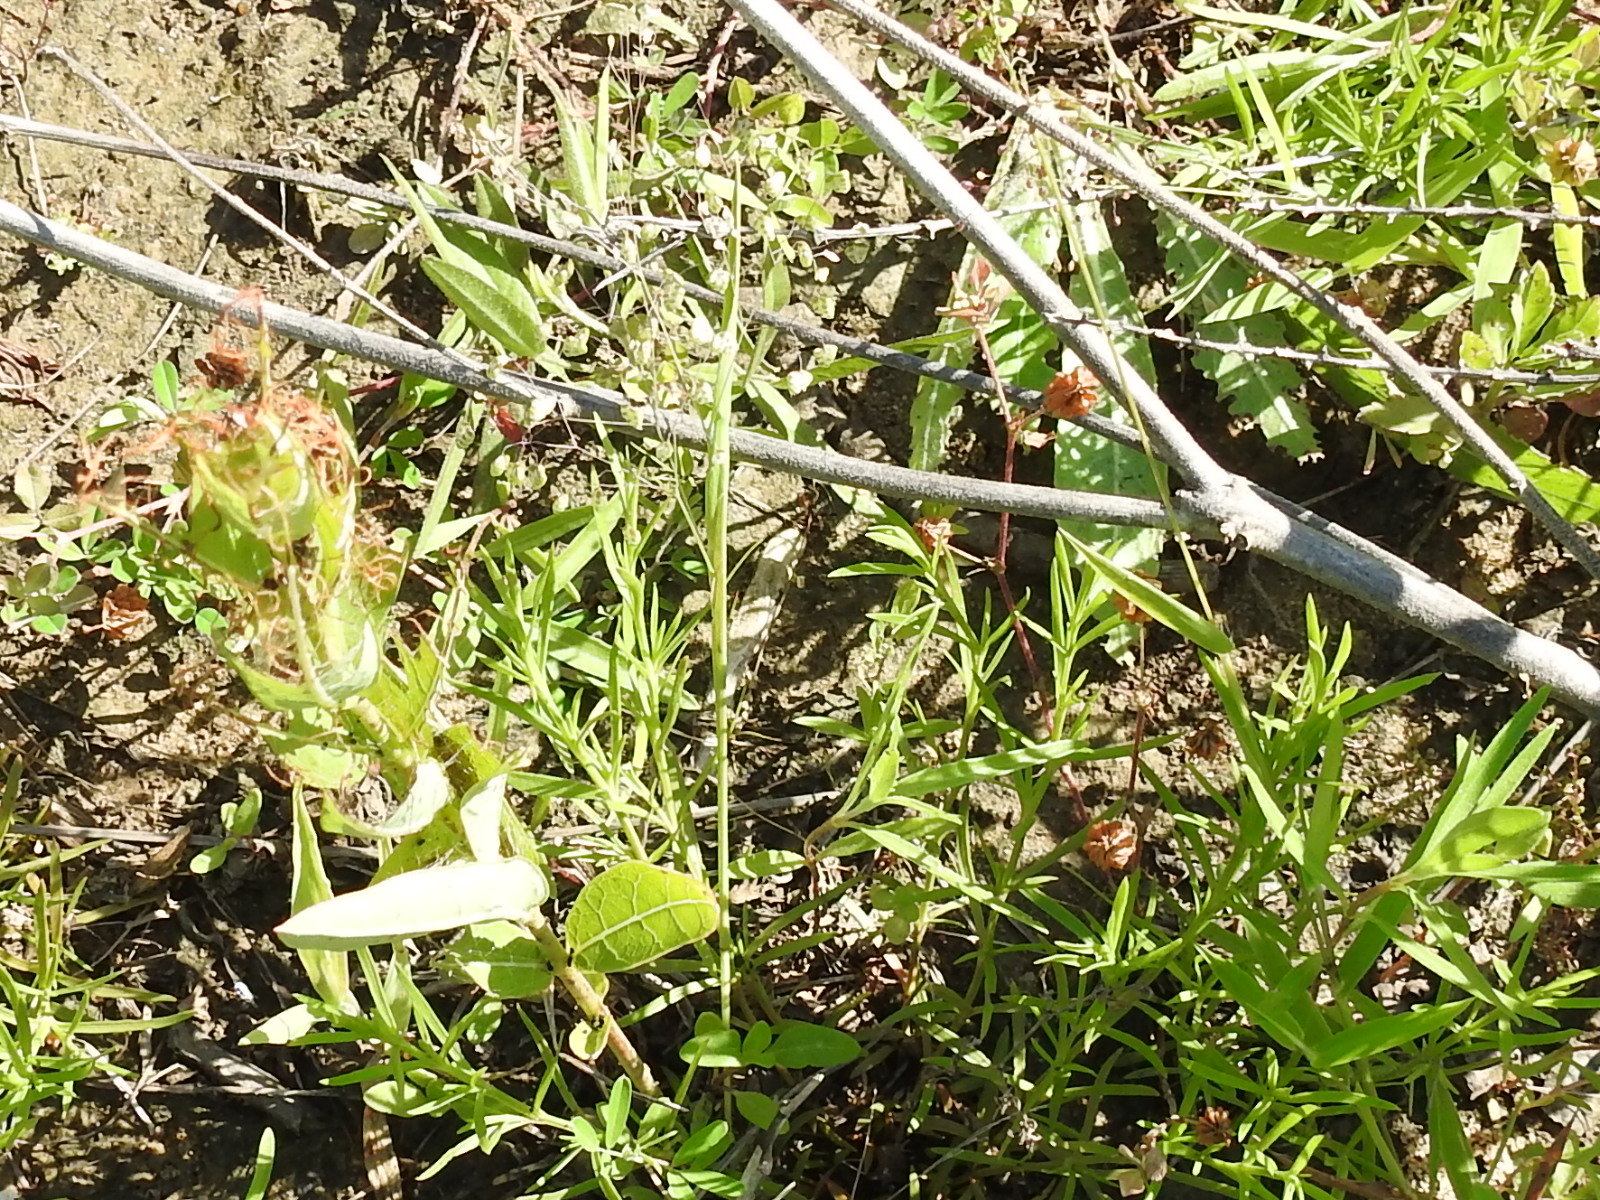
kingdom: Plantae
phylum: Tracheophyta
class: Liliopsida
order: Poales
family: Poaceae
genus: Briza
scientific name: Briza minor
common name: Lesser quaking-grass
